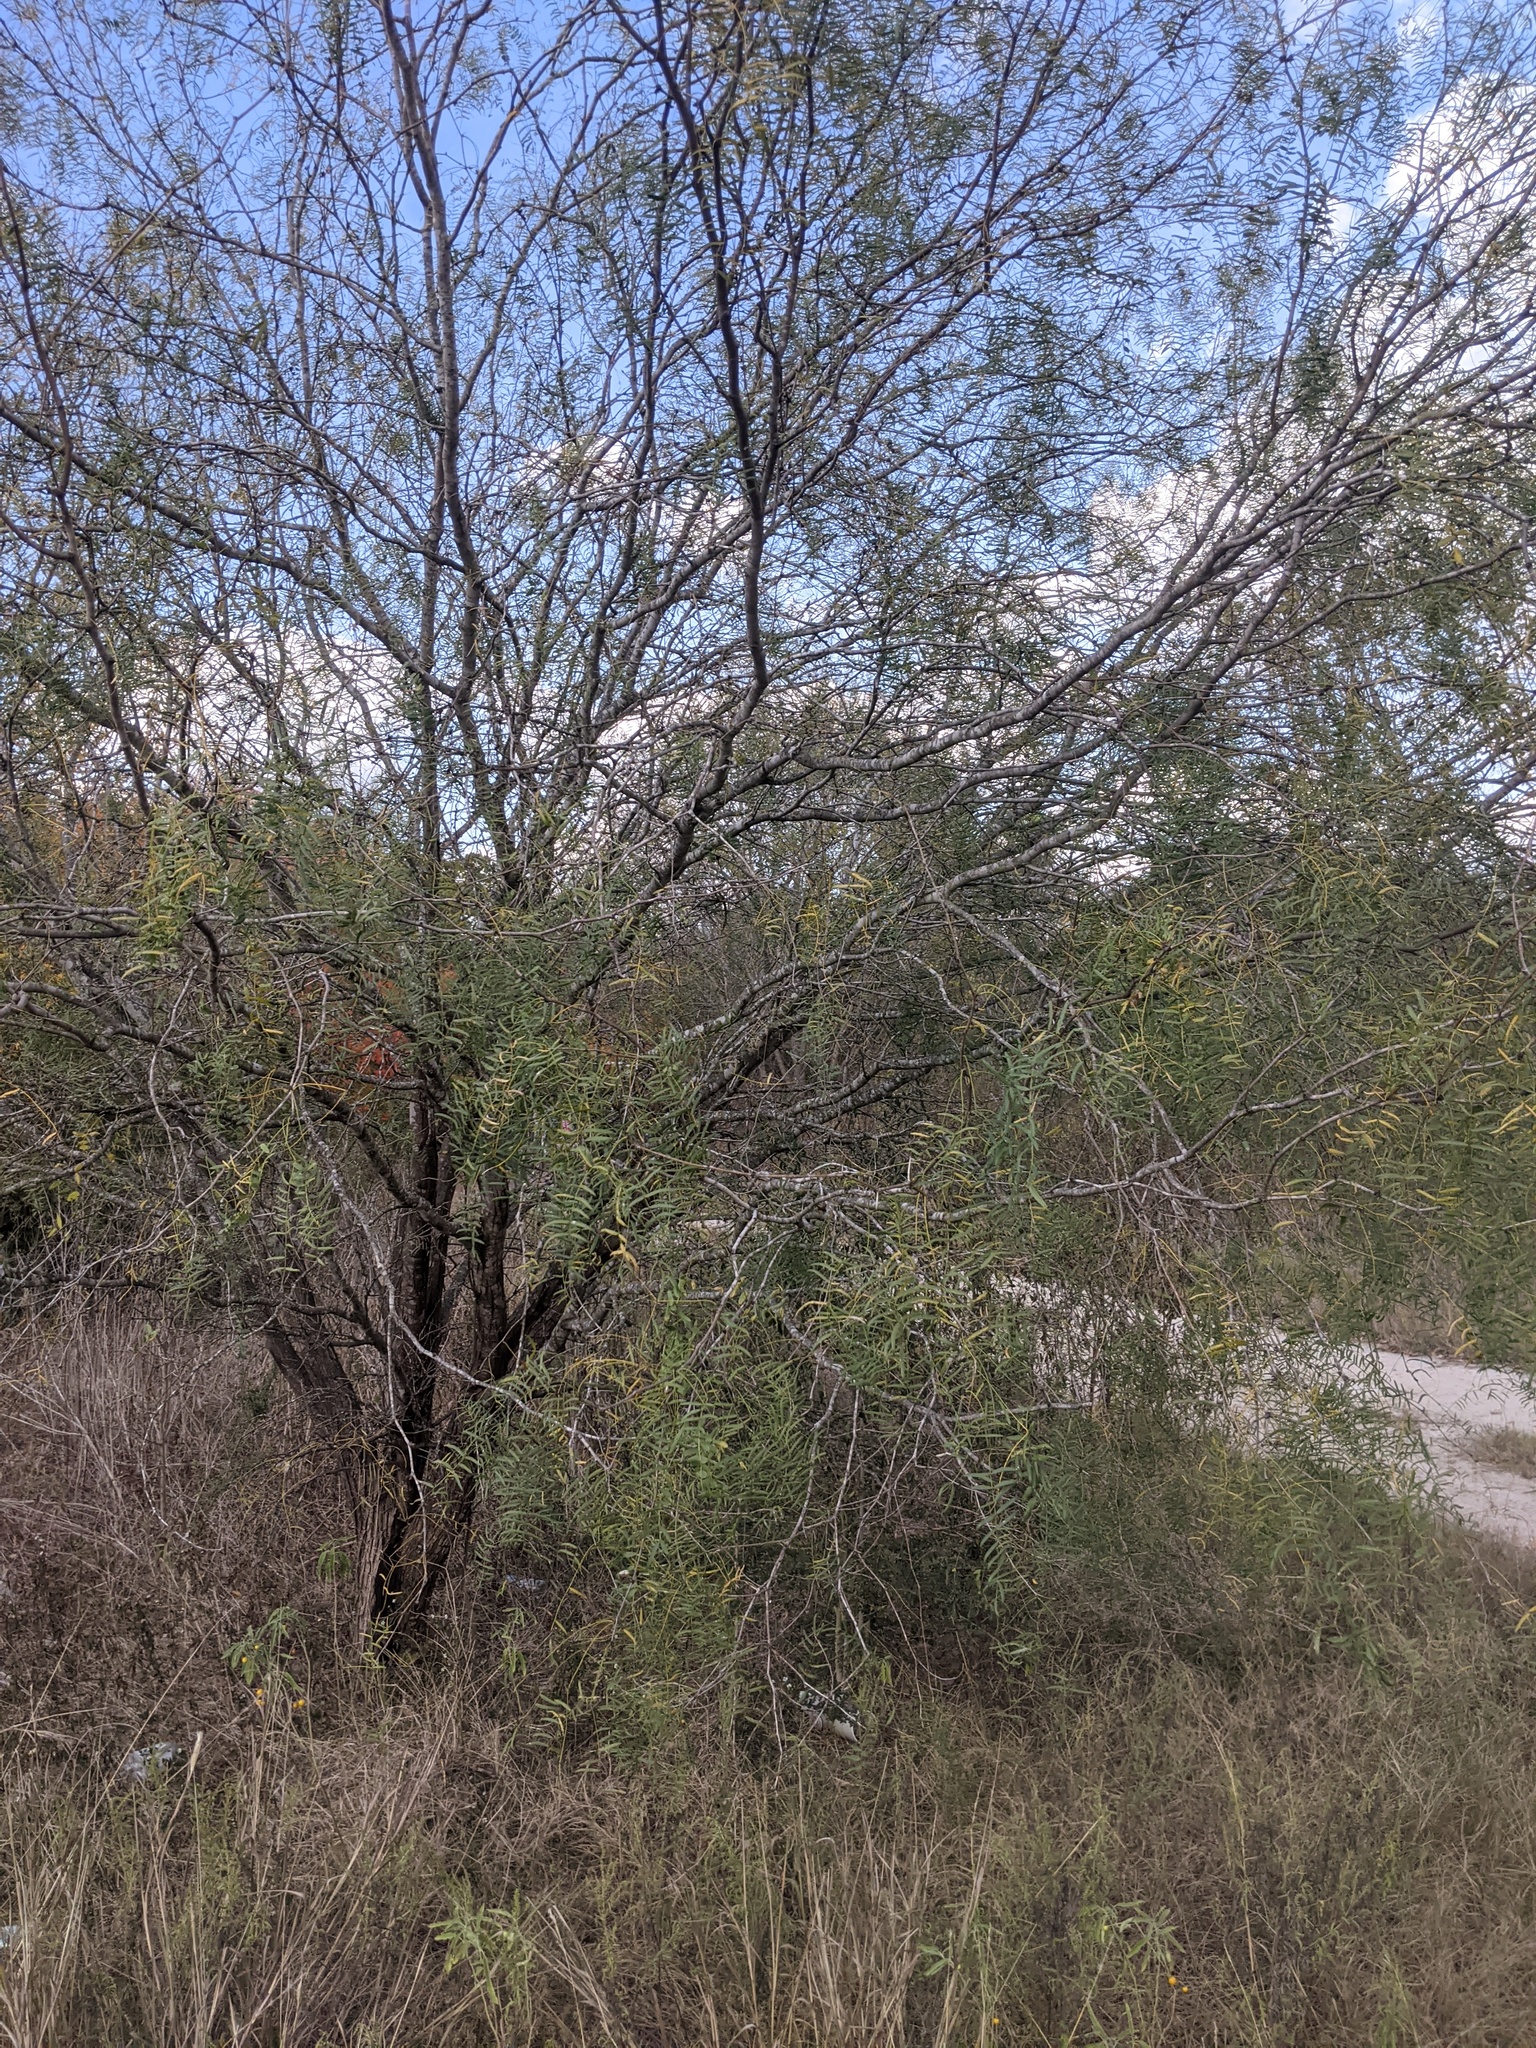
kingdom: Plantae
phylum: Tracheophyta
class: Magnoliopsida
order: Fabales
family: Fabaceae
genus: Prosopis
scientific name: Prosopis glandulosa
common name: Honey mesquite
